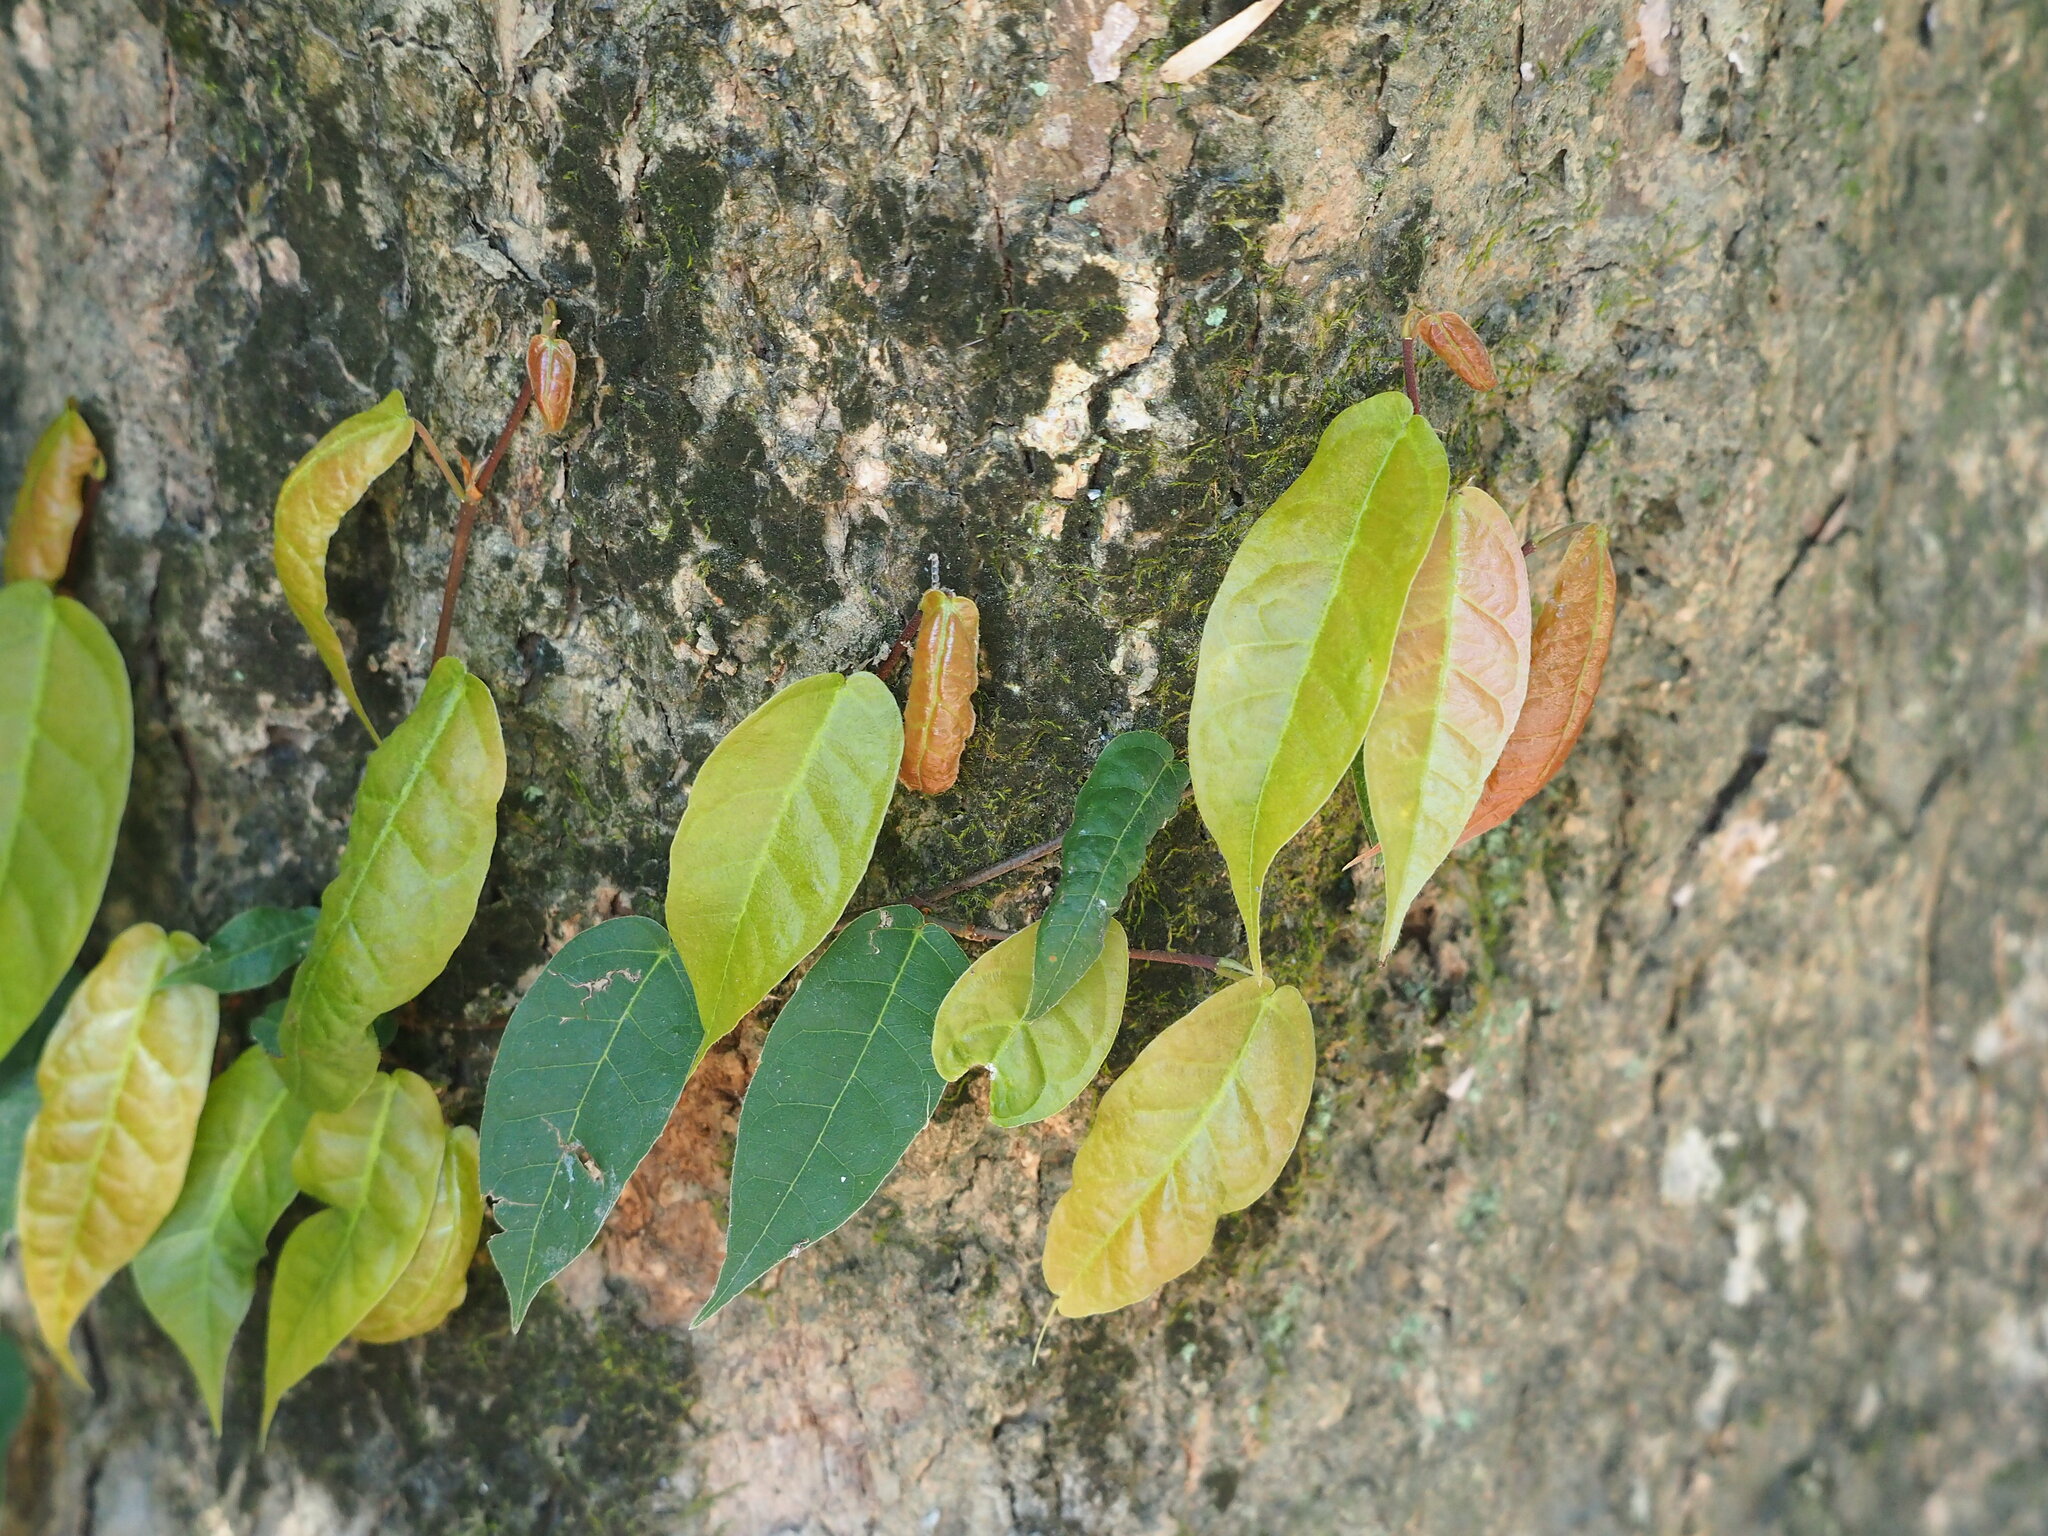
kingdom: Plantae
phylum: Tracheophyta
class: Magnoliopsida
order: Rosales
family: Moraceae
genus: Ficus
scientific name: Ficus sarmentosa
